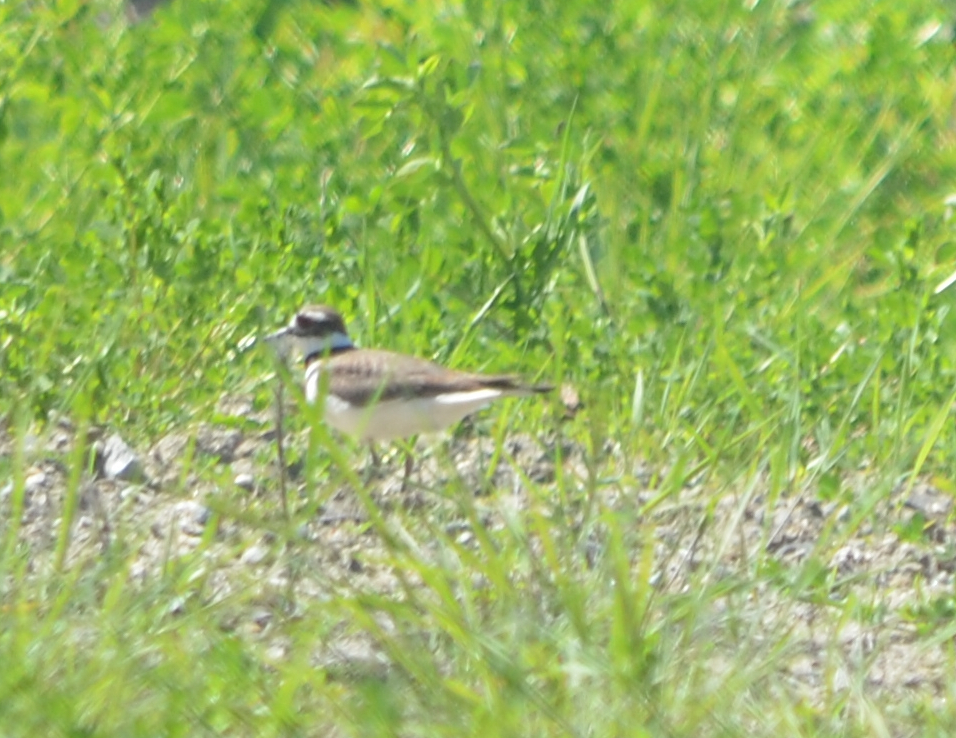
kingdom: Animalia
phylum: Chordata
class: Aves
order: Charadriiformes
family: Charadriidae
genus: Charadrius
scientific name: Charadrius vociferus
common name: Killdeer
